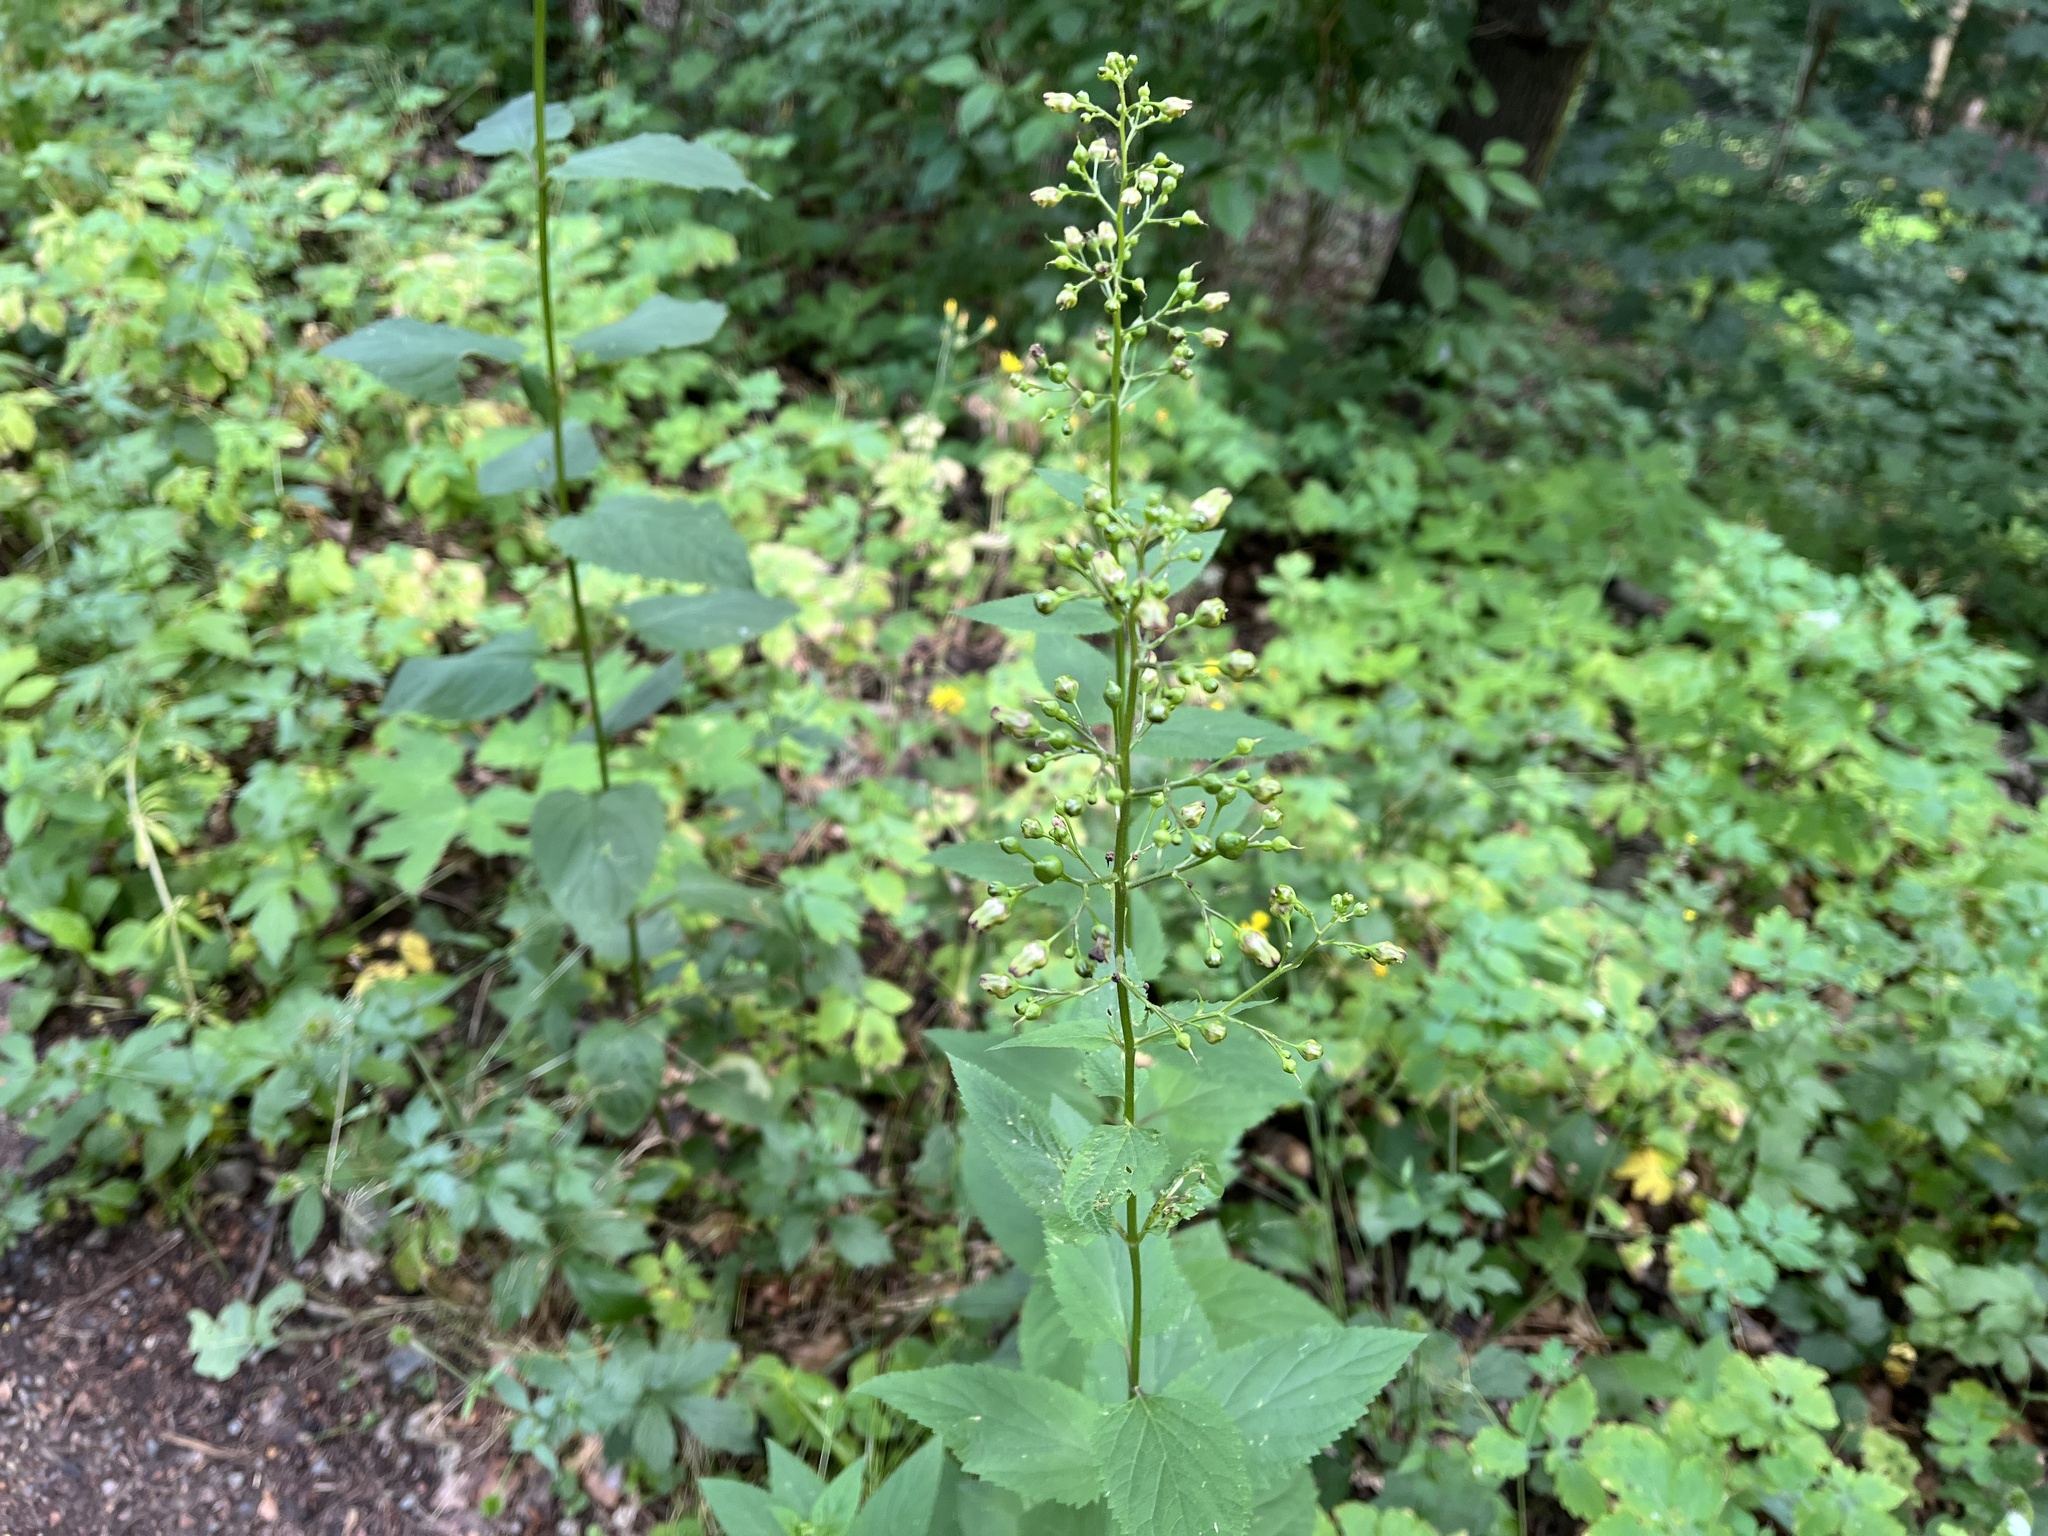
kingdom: Plantae
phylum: Tracheophyta
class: Magnoliopsida
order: Lamiales
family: Scrophulariaceae
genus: Scrophularia
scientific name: Scrophularia nodosa
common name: Common figwort
